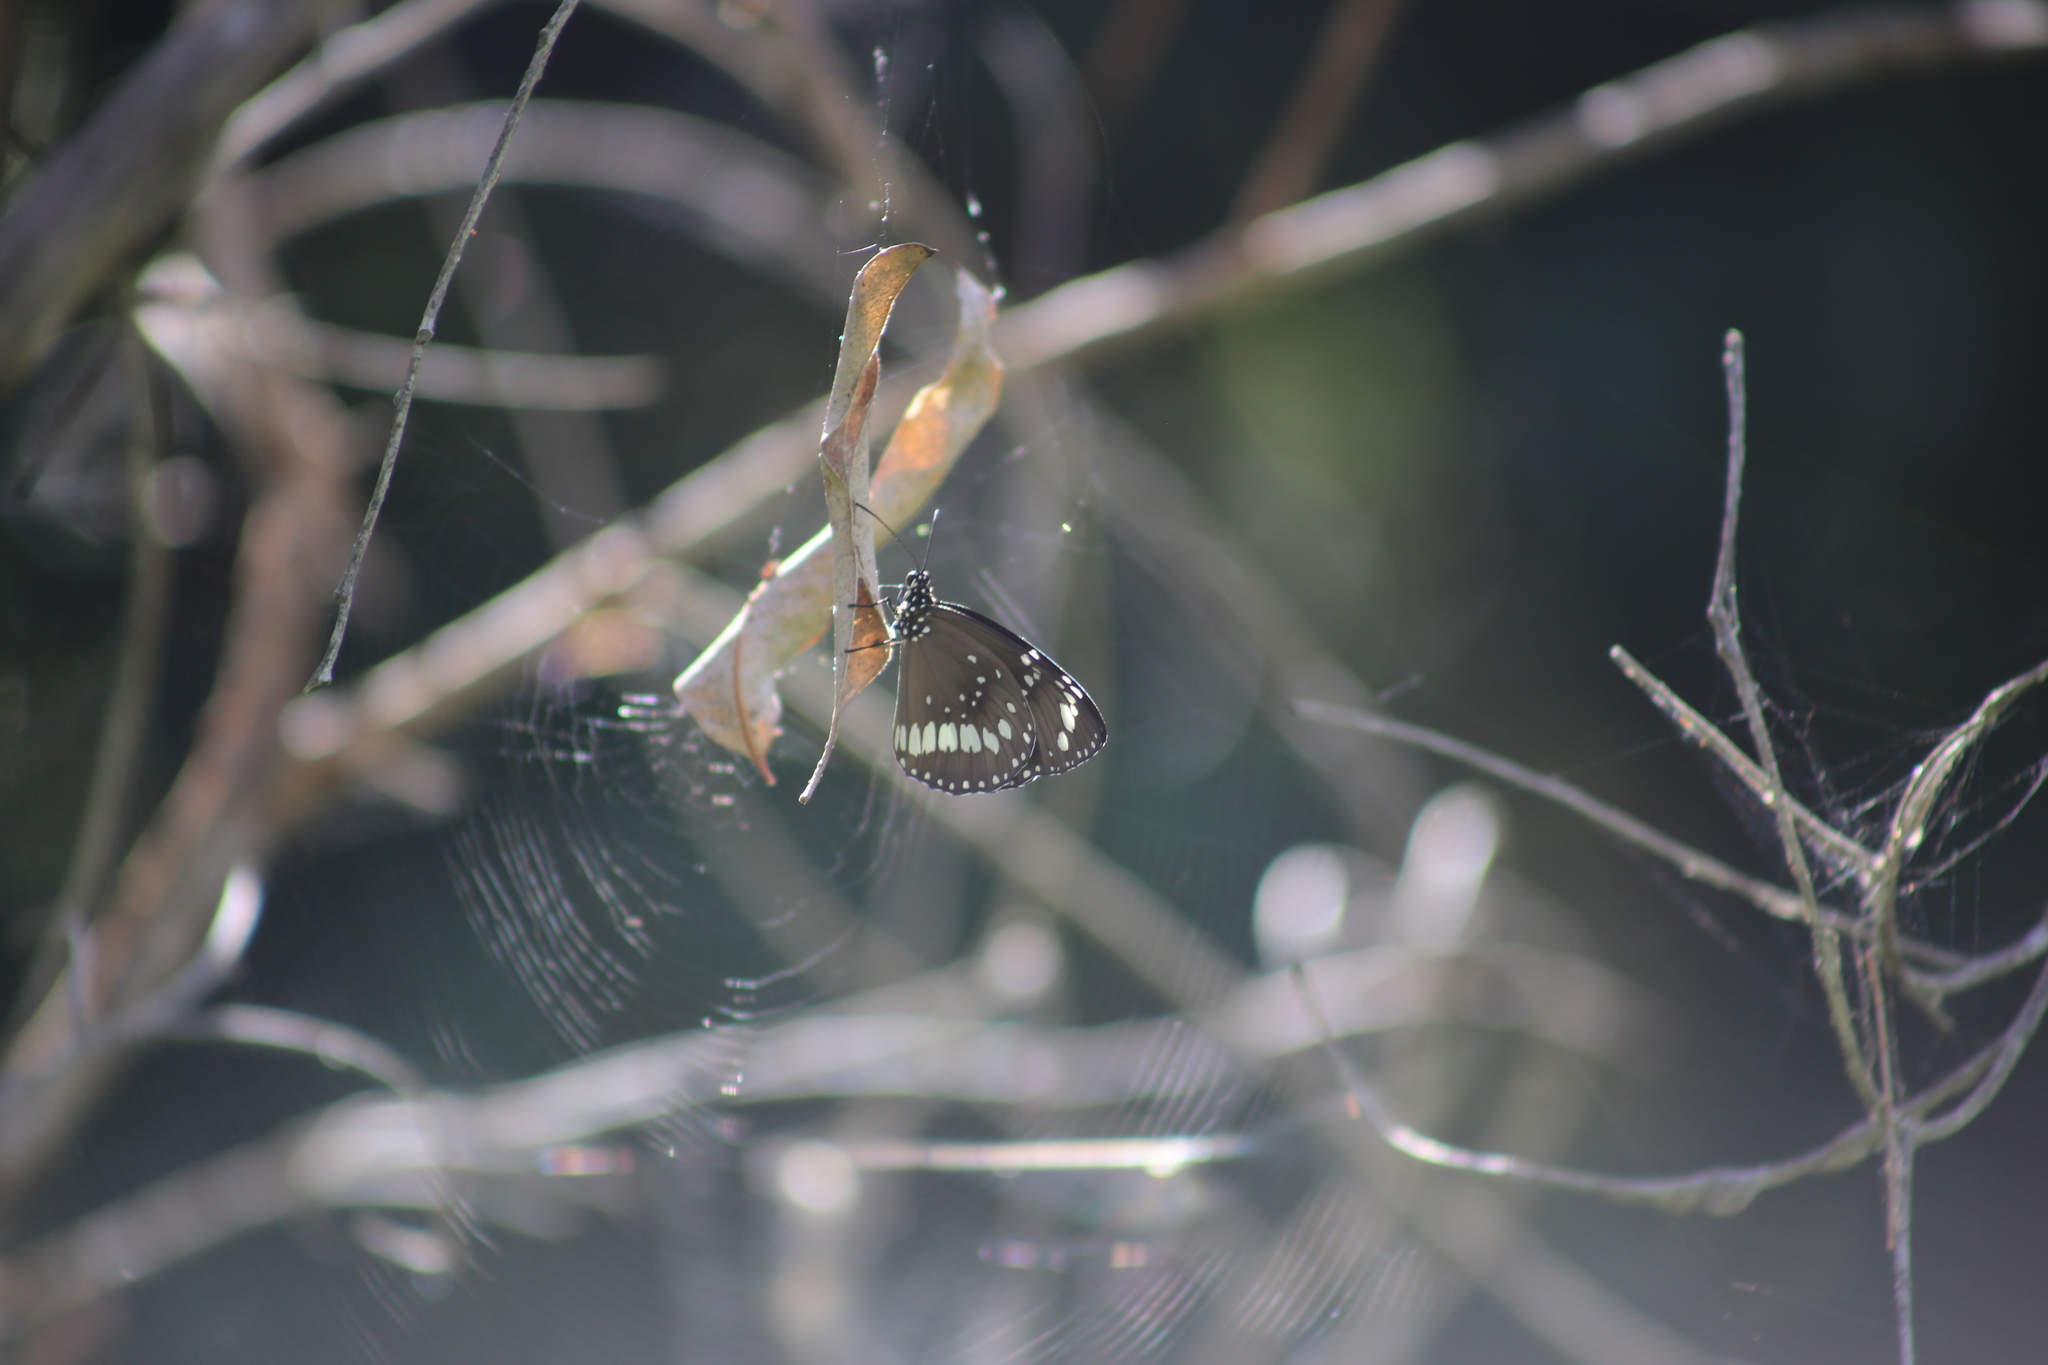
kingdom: Animalia
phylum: Arthropoda
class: Insecta
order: Lepidoptera
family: Nymphalidae
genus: Euploea
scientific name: Euploea core
